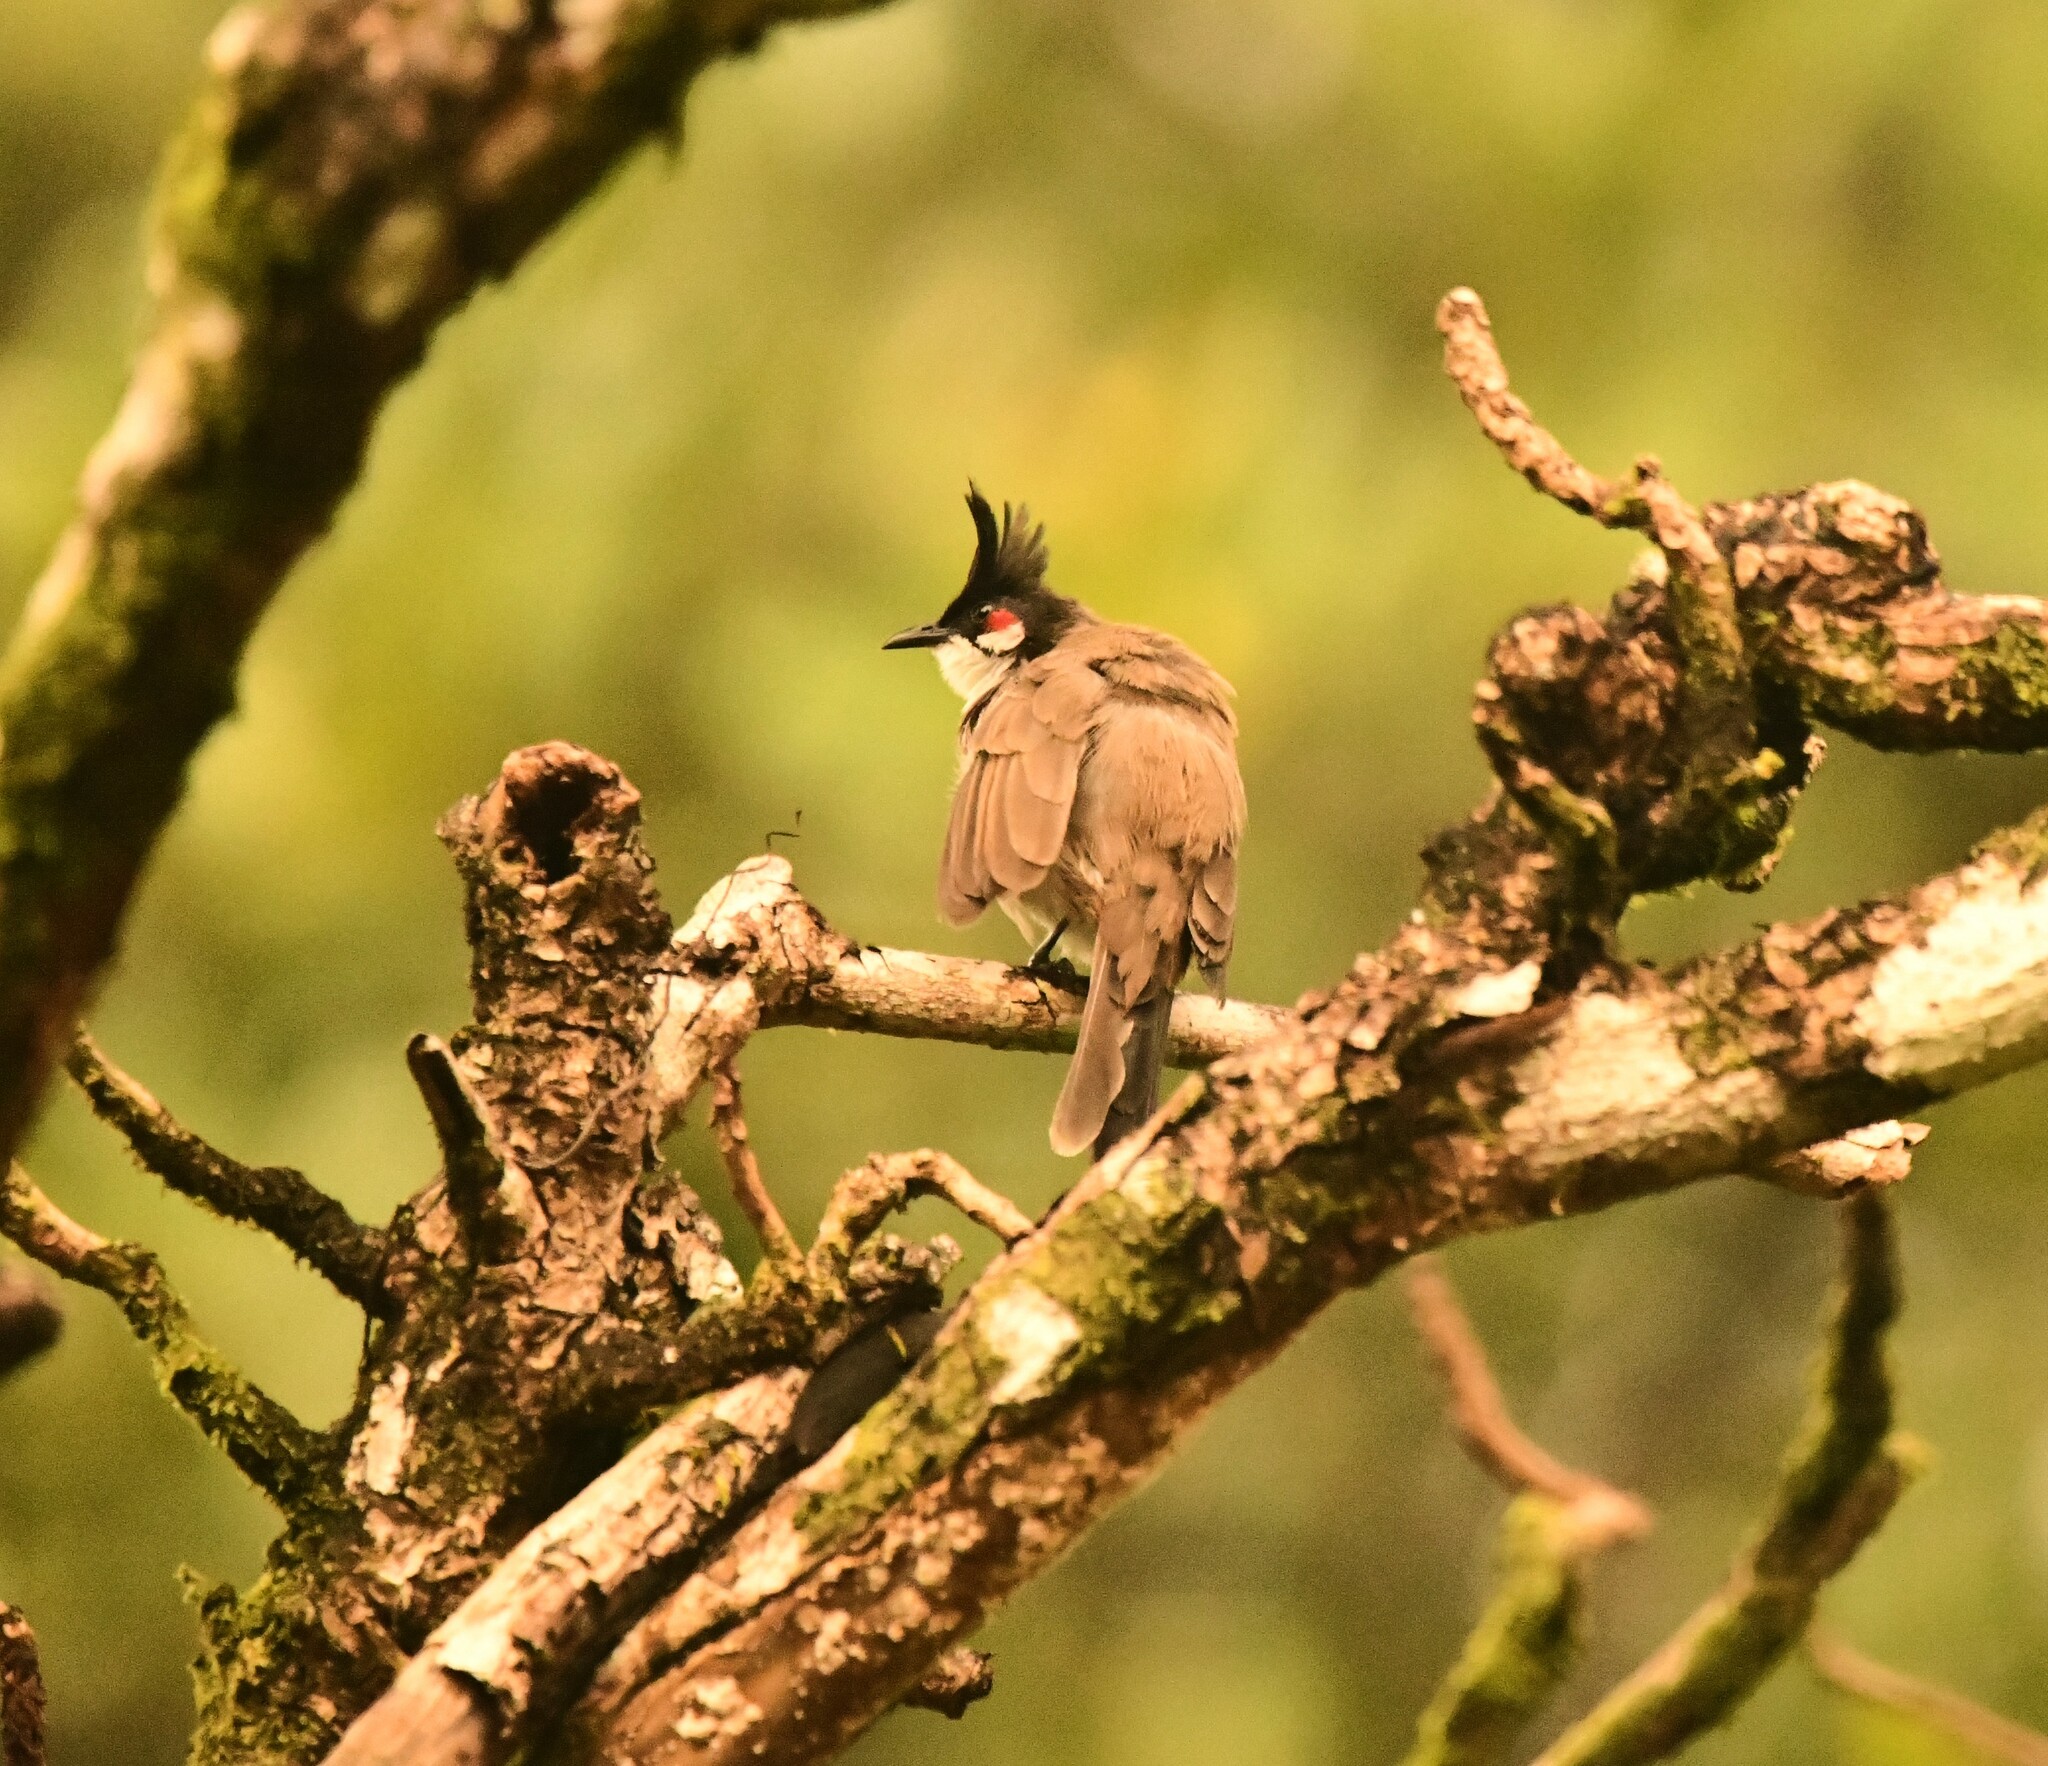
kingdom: Animalia
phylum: Chordata
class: Aves
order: Passeriformes
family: Pycnonotidae
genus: Pycnonotus
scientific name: Pycnonotus jocosus
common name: Red-whiskered bulbul
